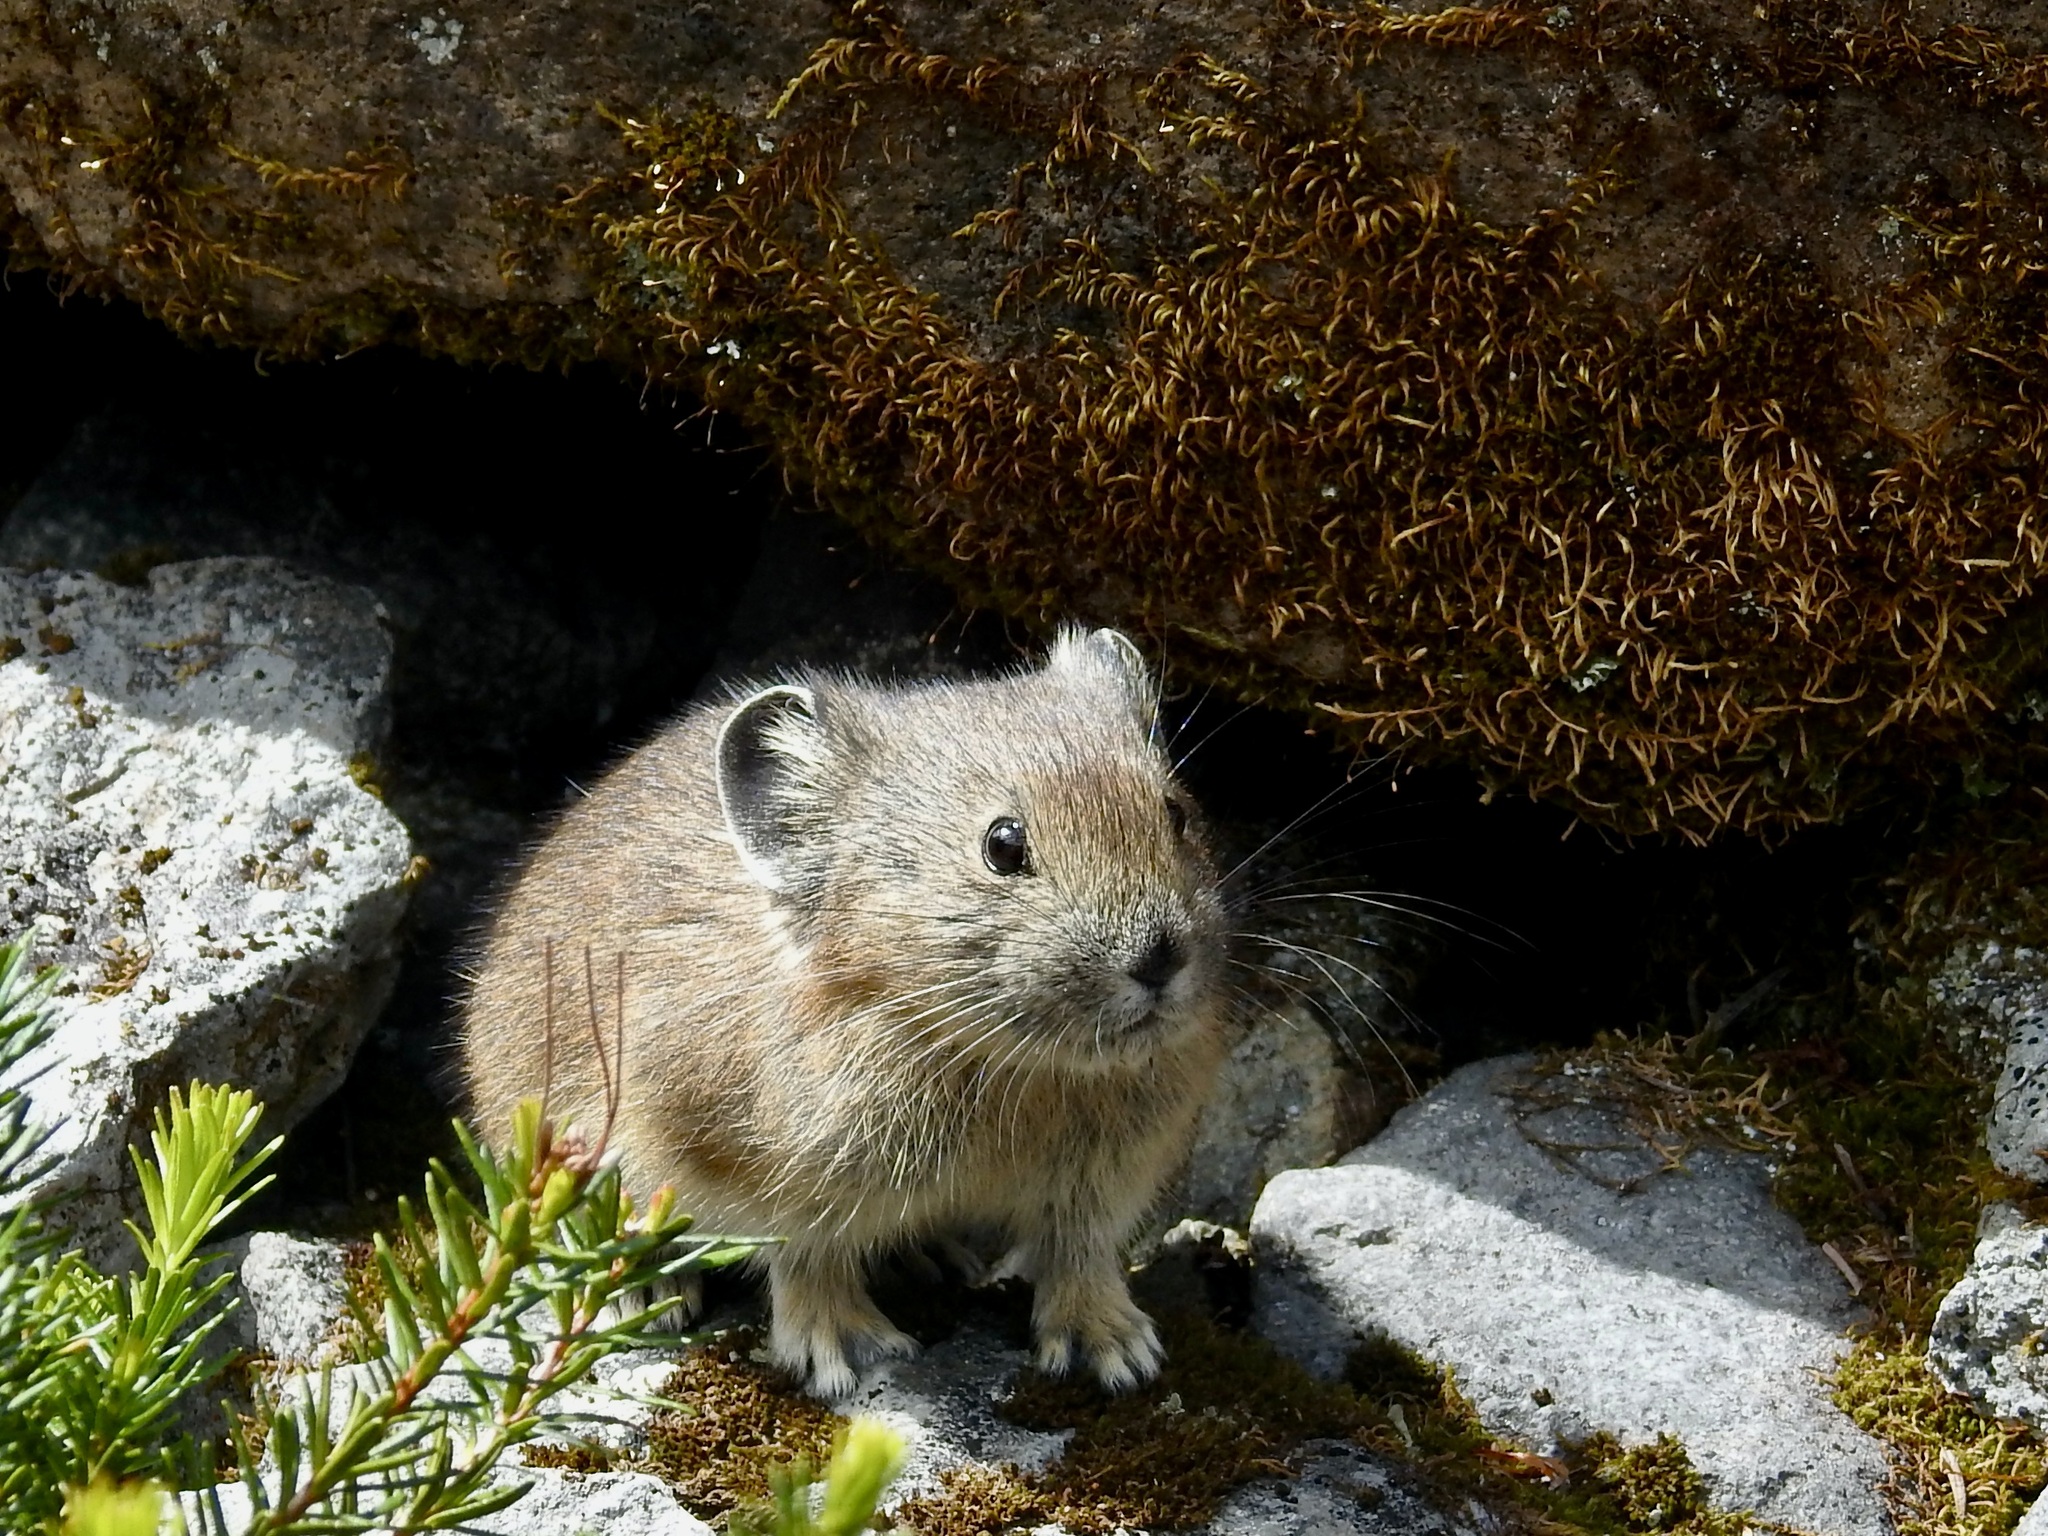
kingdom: Animalia
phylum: Chordata
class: Mammalia
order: Lagomorpha
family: Ochotonidae
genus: Ochotona
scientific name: Ochotona princeps
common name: American pika
